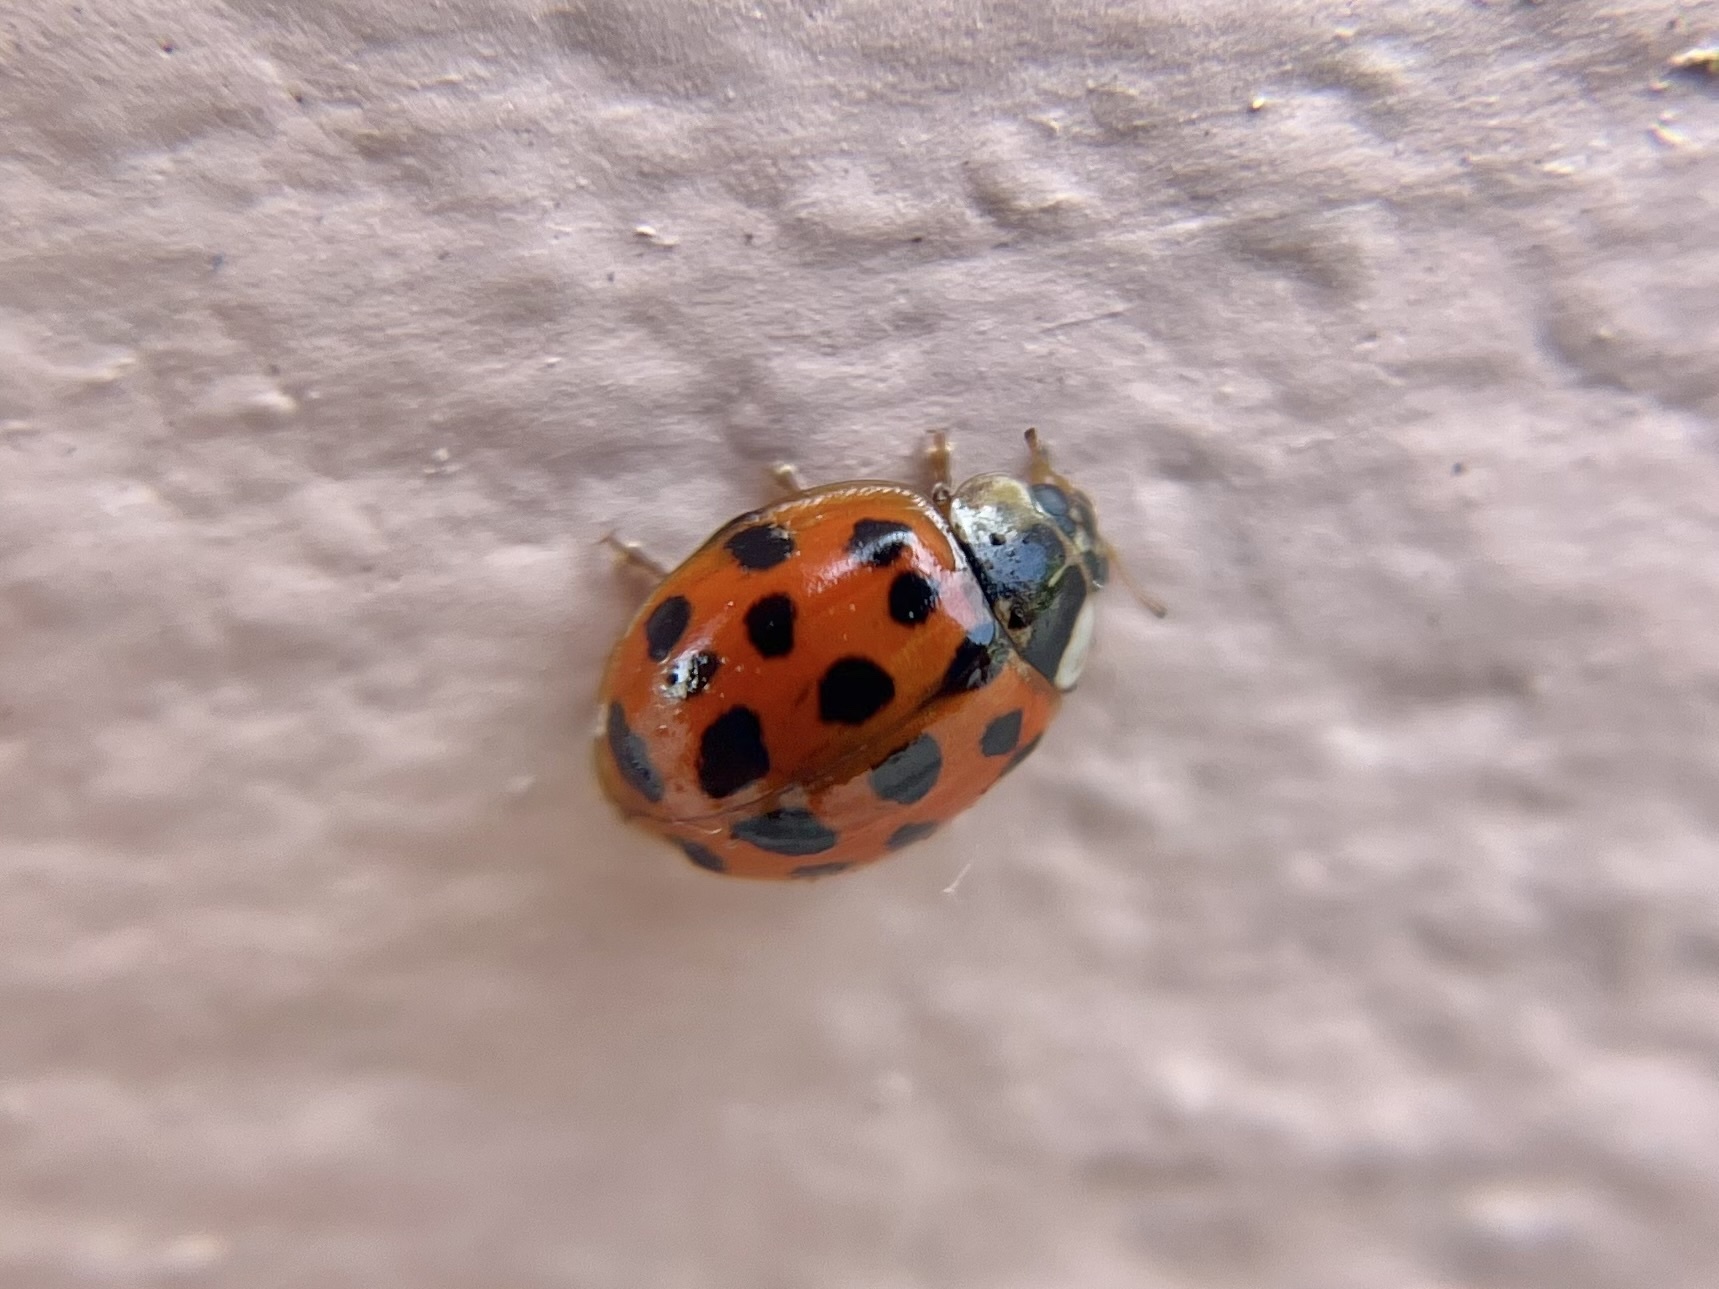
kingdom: Animalia
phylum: Arthropoda
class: Insecta
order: Coleoptera
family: Coccinellidae
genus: Harmonia
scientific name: Harmonia axyridis
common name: Harlequin ladybird
